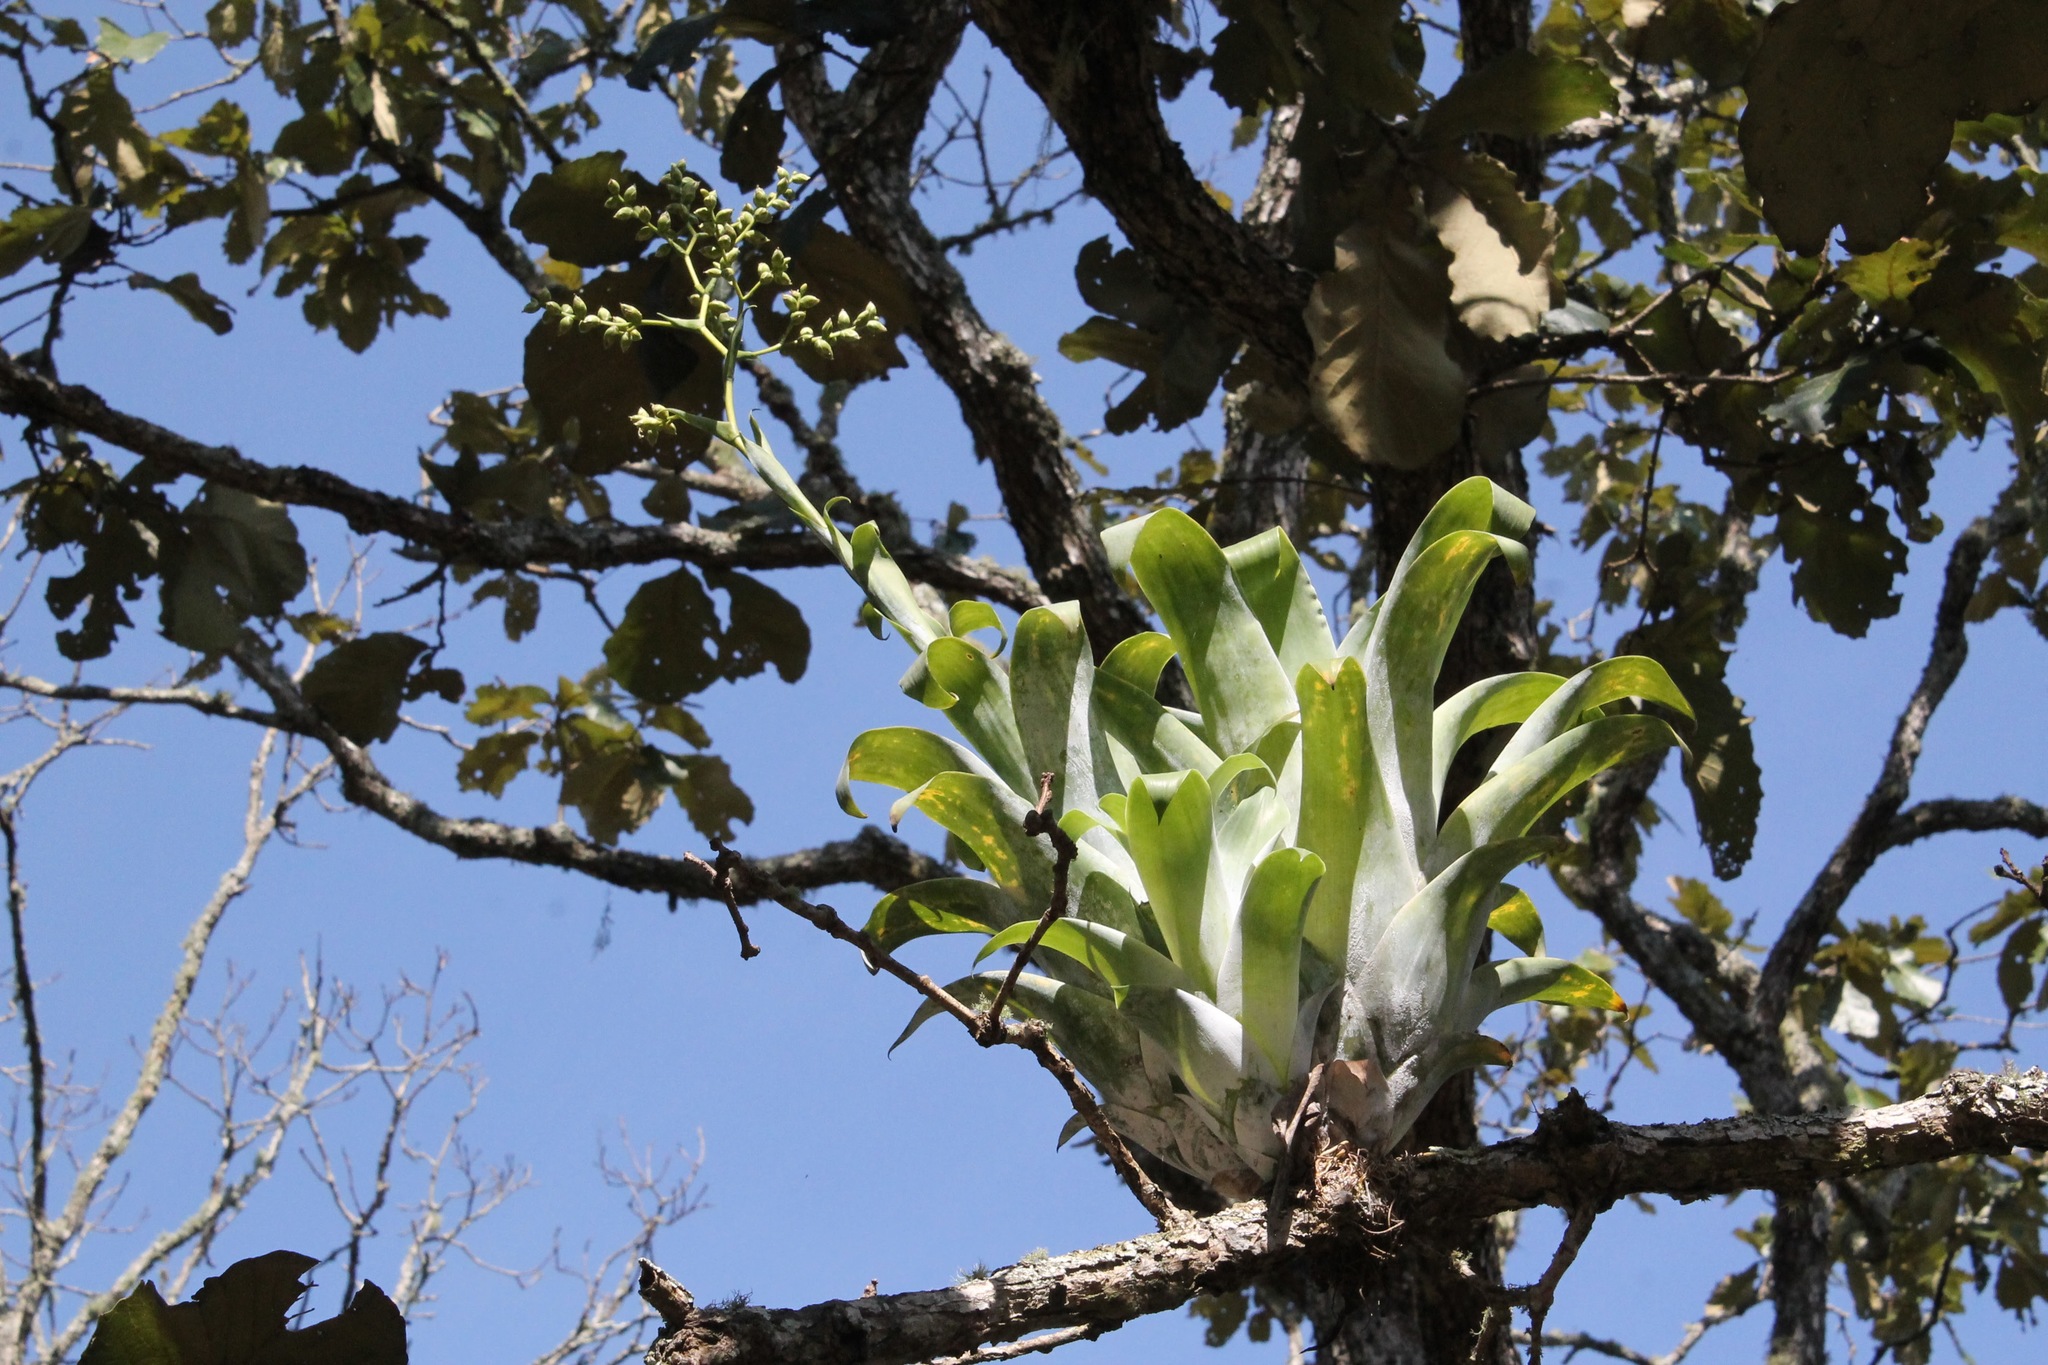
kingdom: Plantae
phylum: Tracheophyta
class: Liliopsida
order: Poales
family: Bromeliaceae
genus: Catopsis
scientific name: Catopsis compacta
